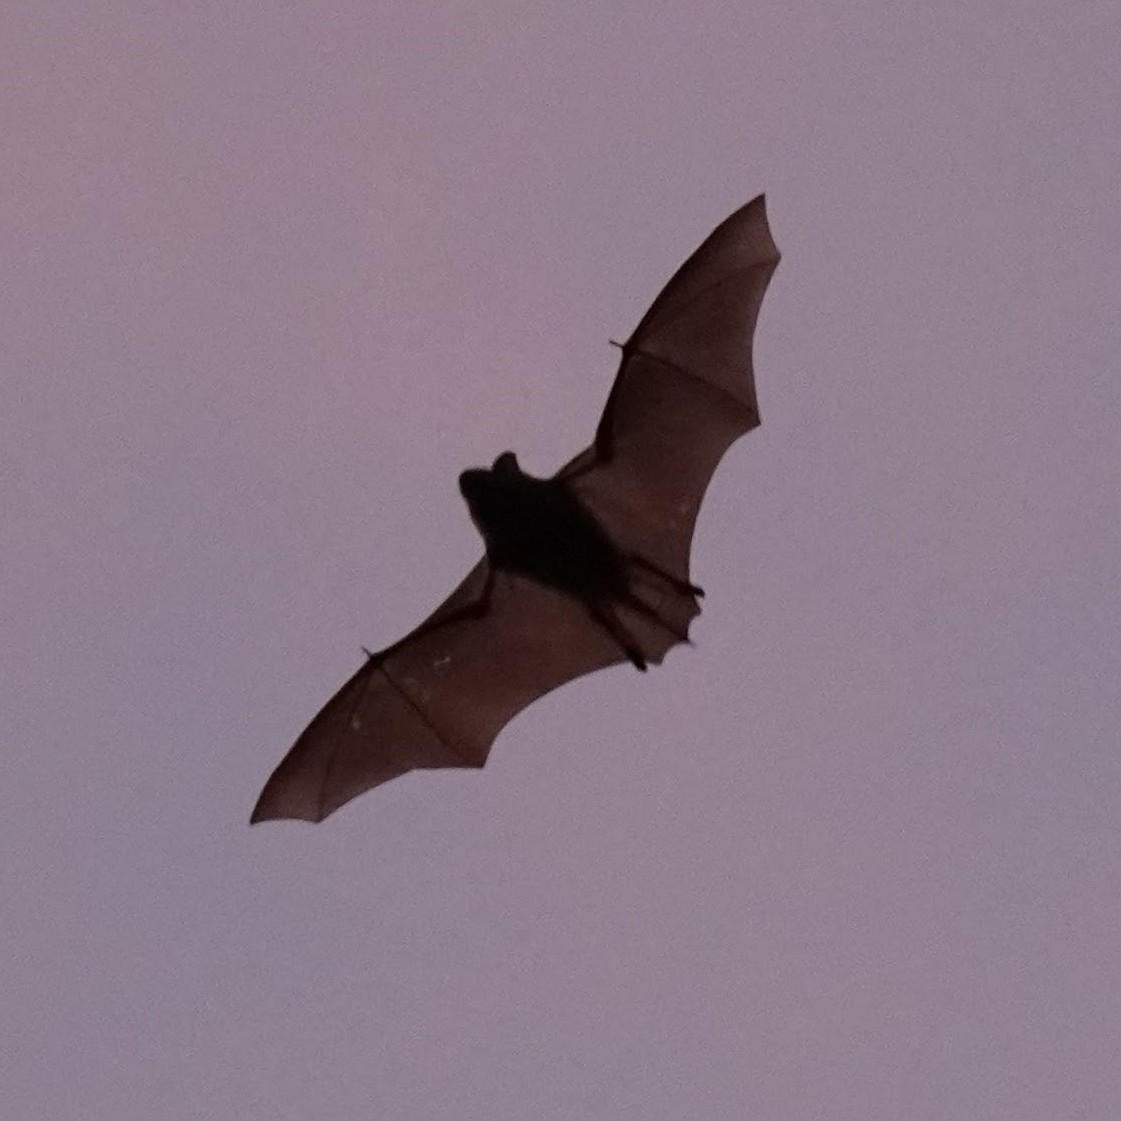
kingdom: Animalia
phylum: Chordata
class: Mammalia
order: Chiroptera
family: Vespertilionidae
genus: Eptesicus
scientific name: Eptesicus fuscus
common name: Big brown bat
